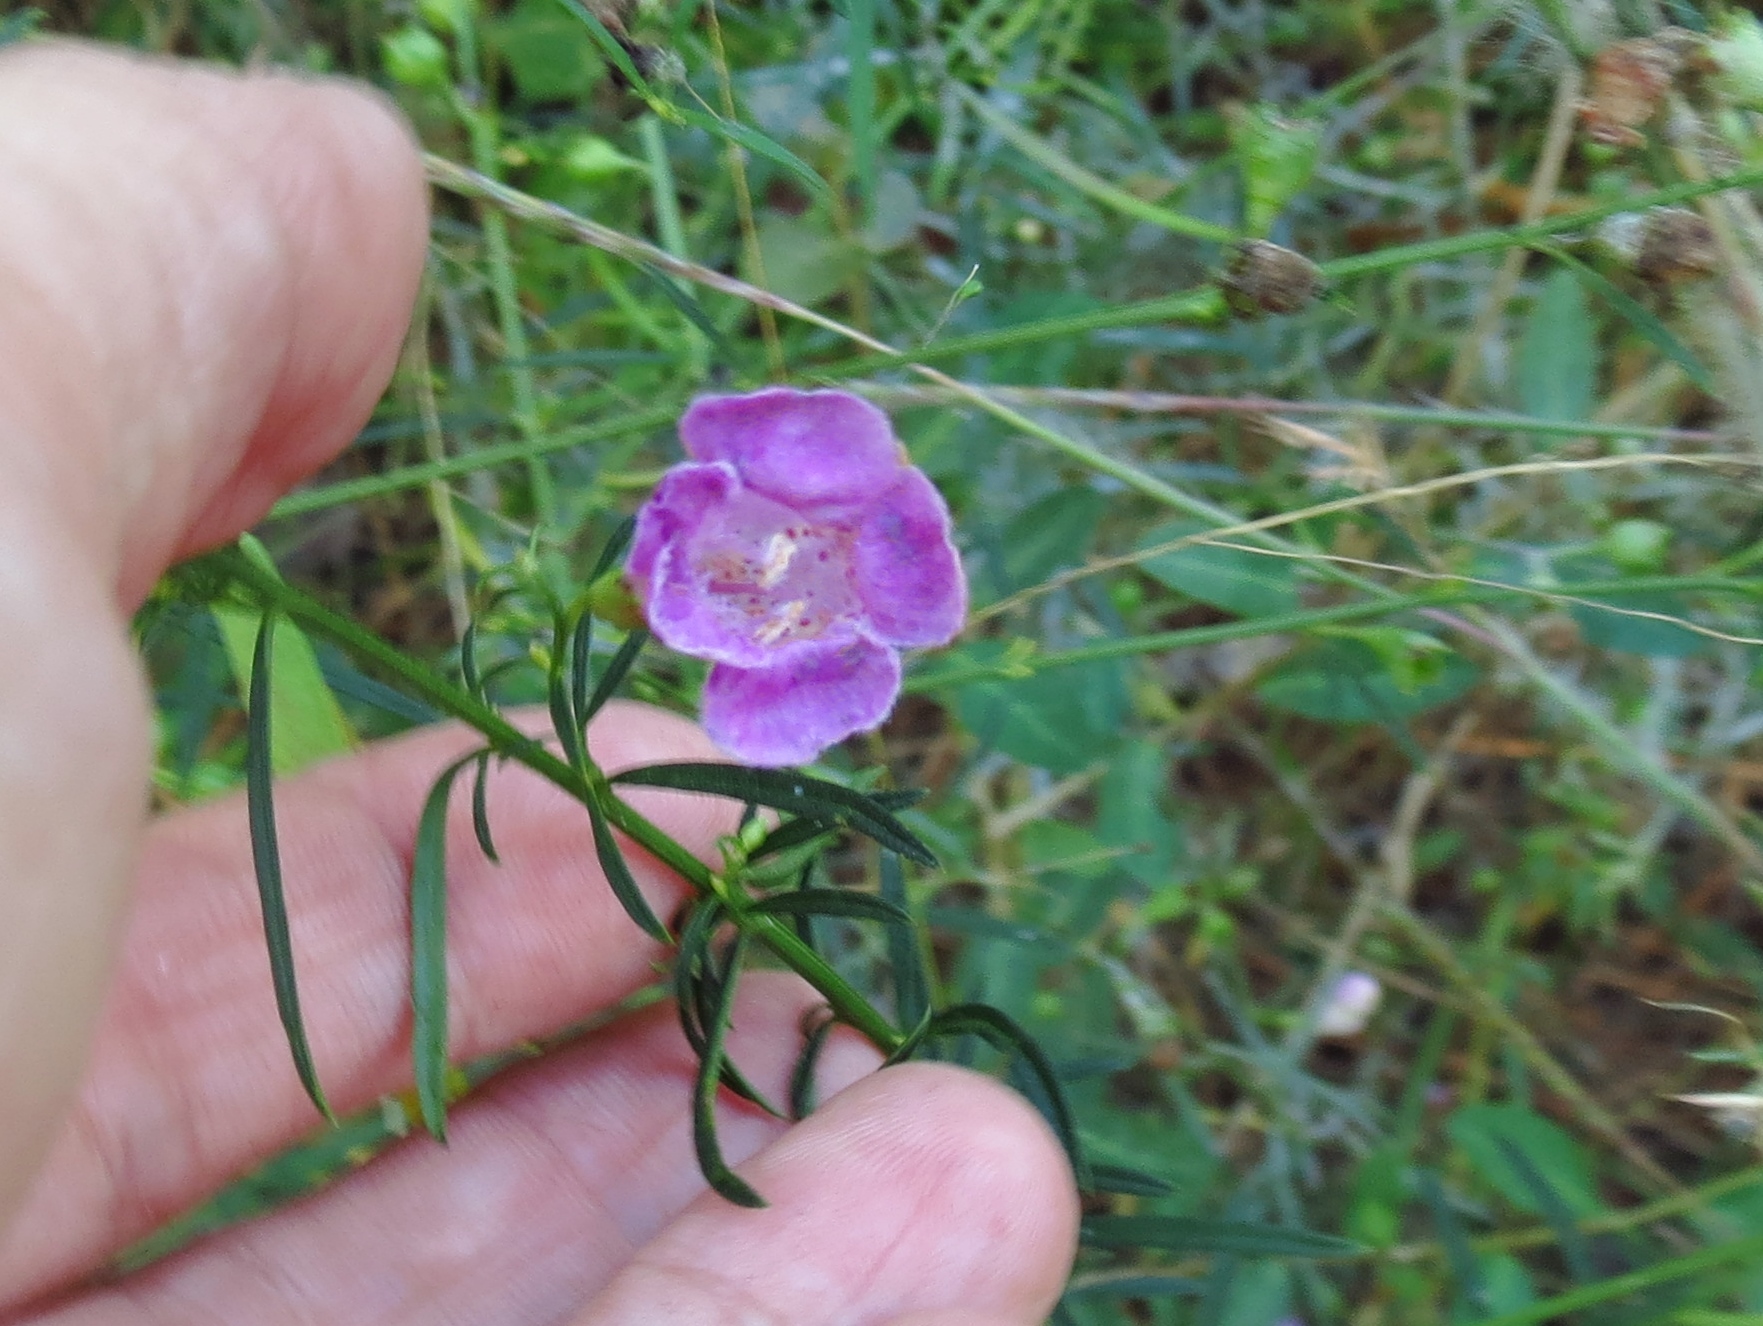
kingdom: Plantae
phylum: Tracheophyta
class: Magnoliopsida
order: Lamiales
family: Orobanchaceae
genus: Agalinis
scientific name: Agalinis purpurea
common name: Purple false foxglove
